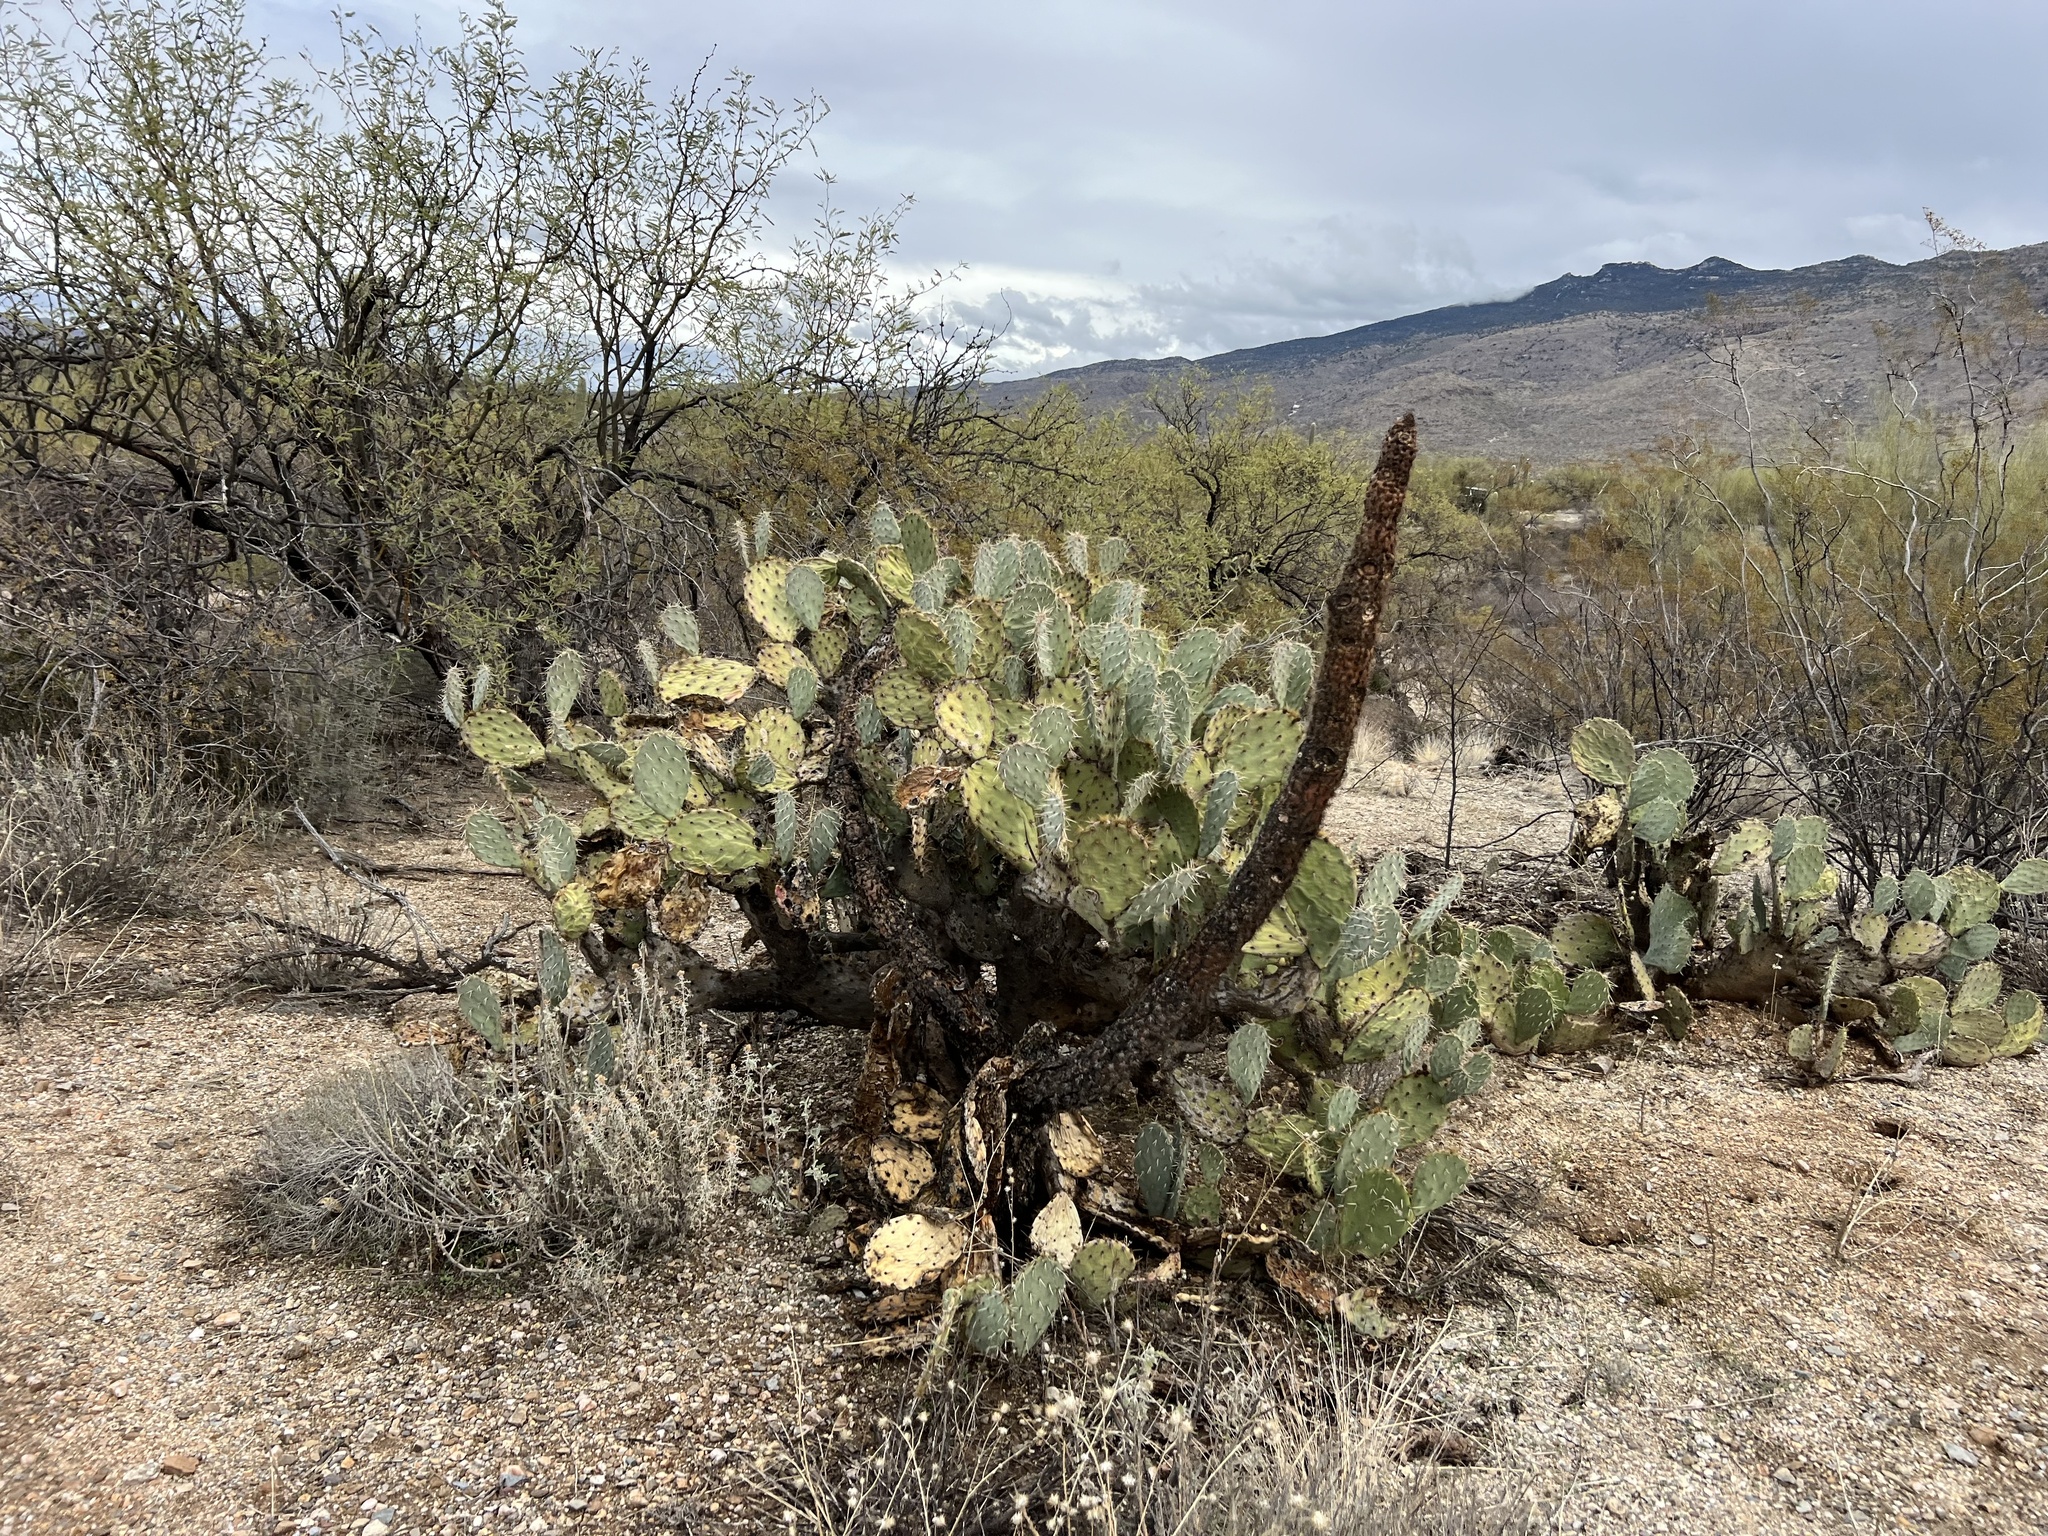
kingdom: Plantae
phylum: Tracheophyta
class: Magnoliopsida
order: Caryophyllales
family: Cactaceae
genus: Opuntia
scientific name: Opuntia engelmannii
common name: Cactus-apple
